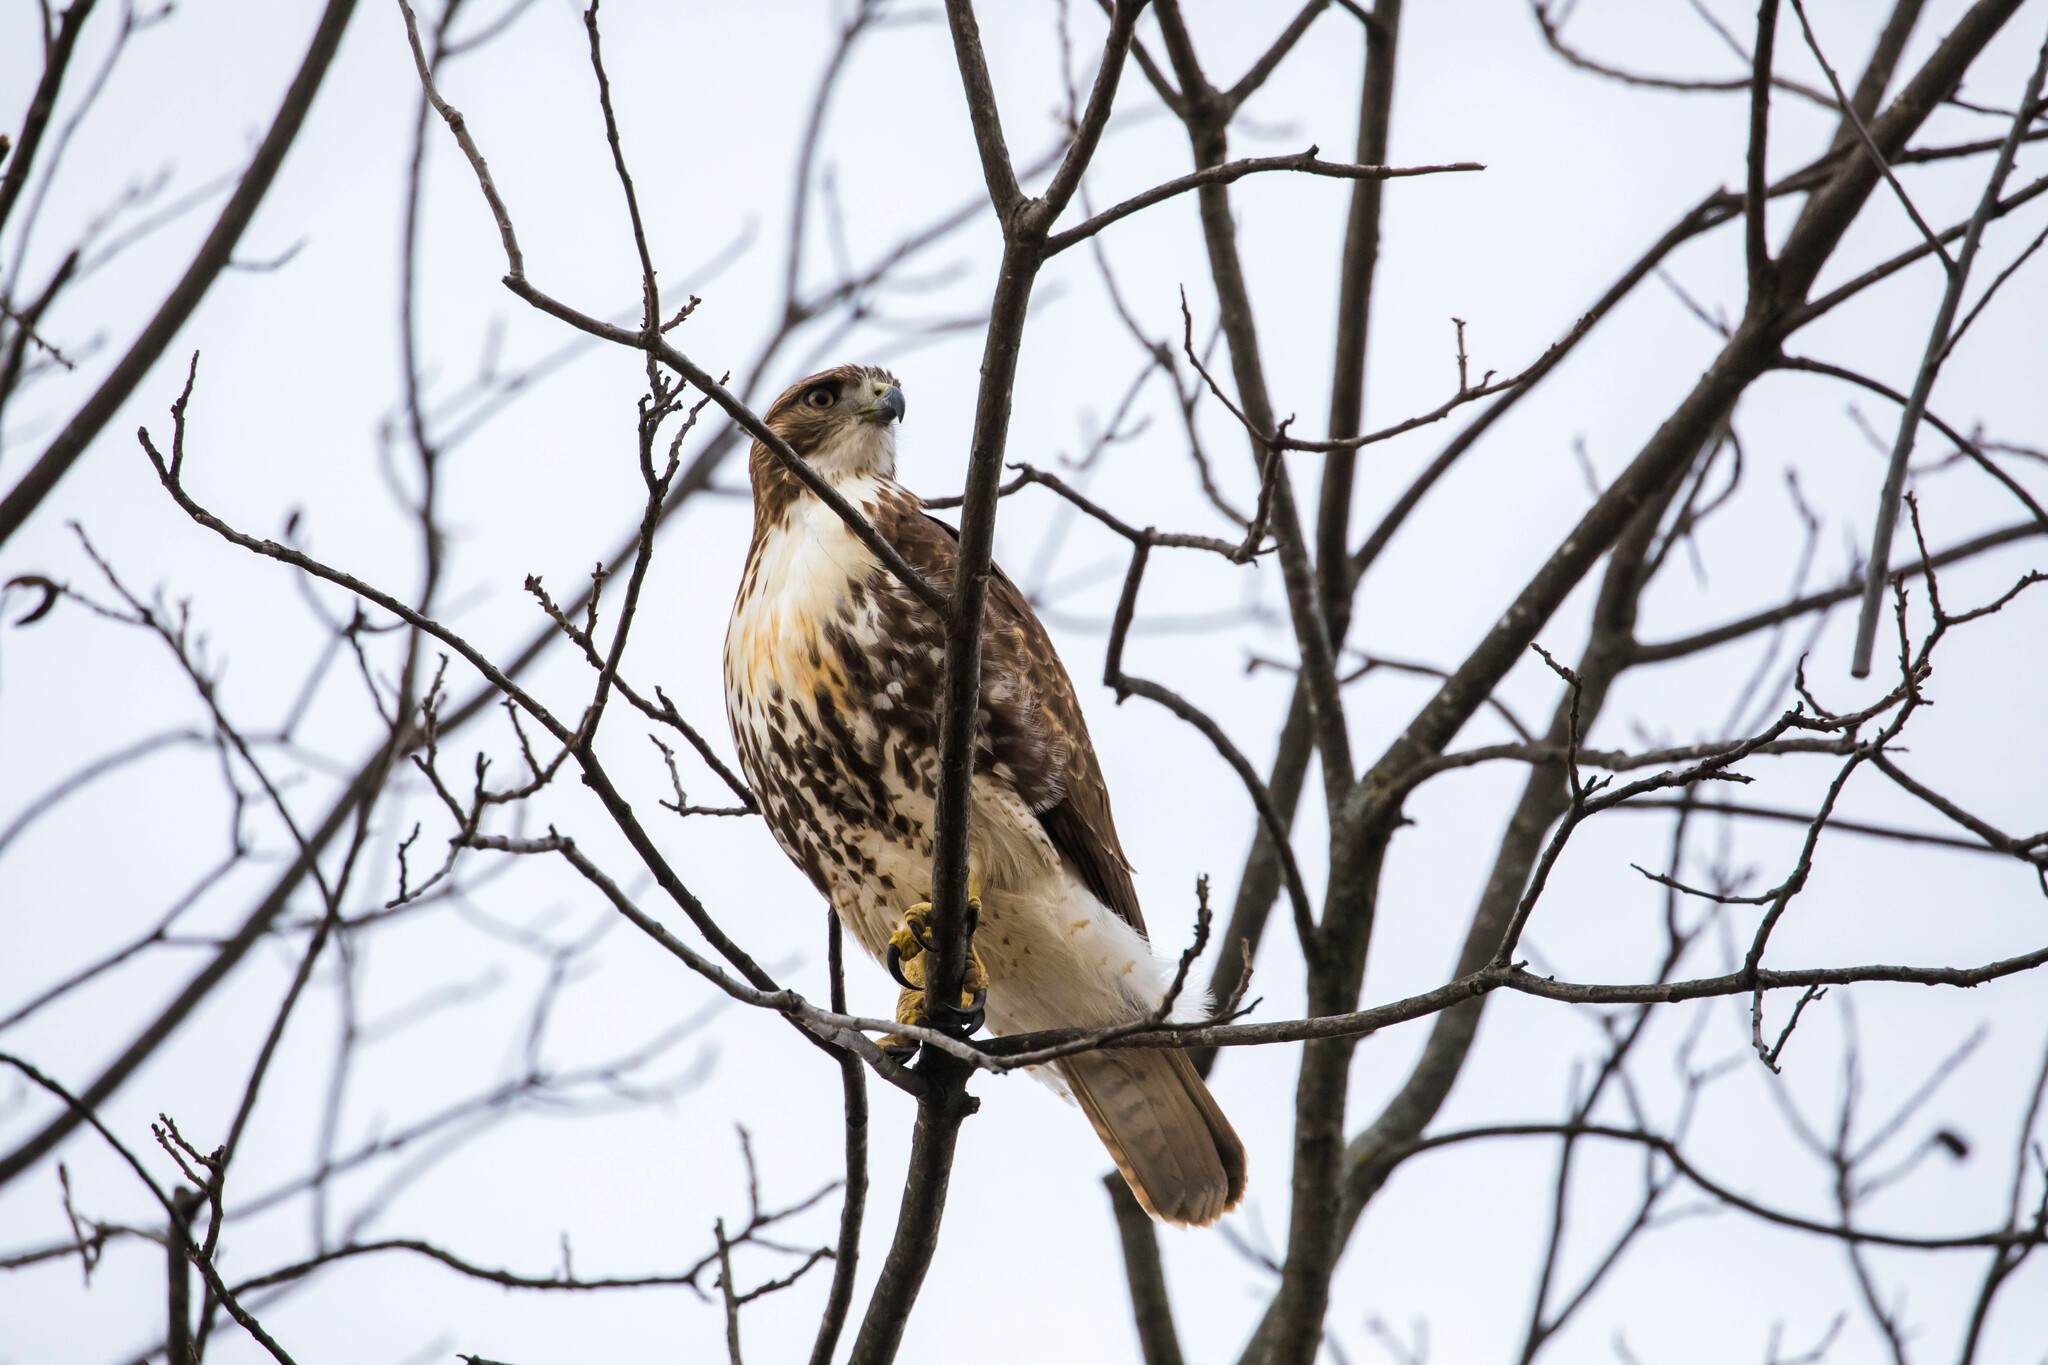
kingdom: Animalia
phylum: Chordata
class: Aves
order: Accipitriformes
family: Accipitridae
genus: Buteo
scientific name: Buteo jamaicensis
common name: Red-tailed hawk
